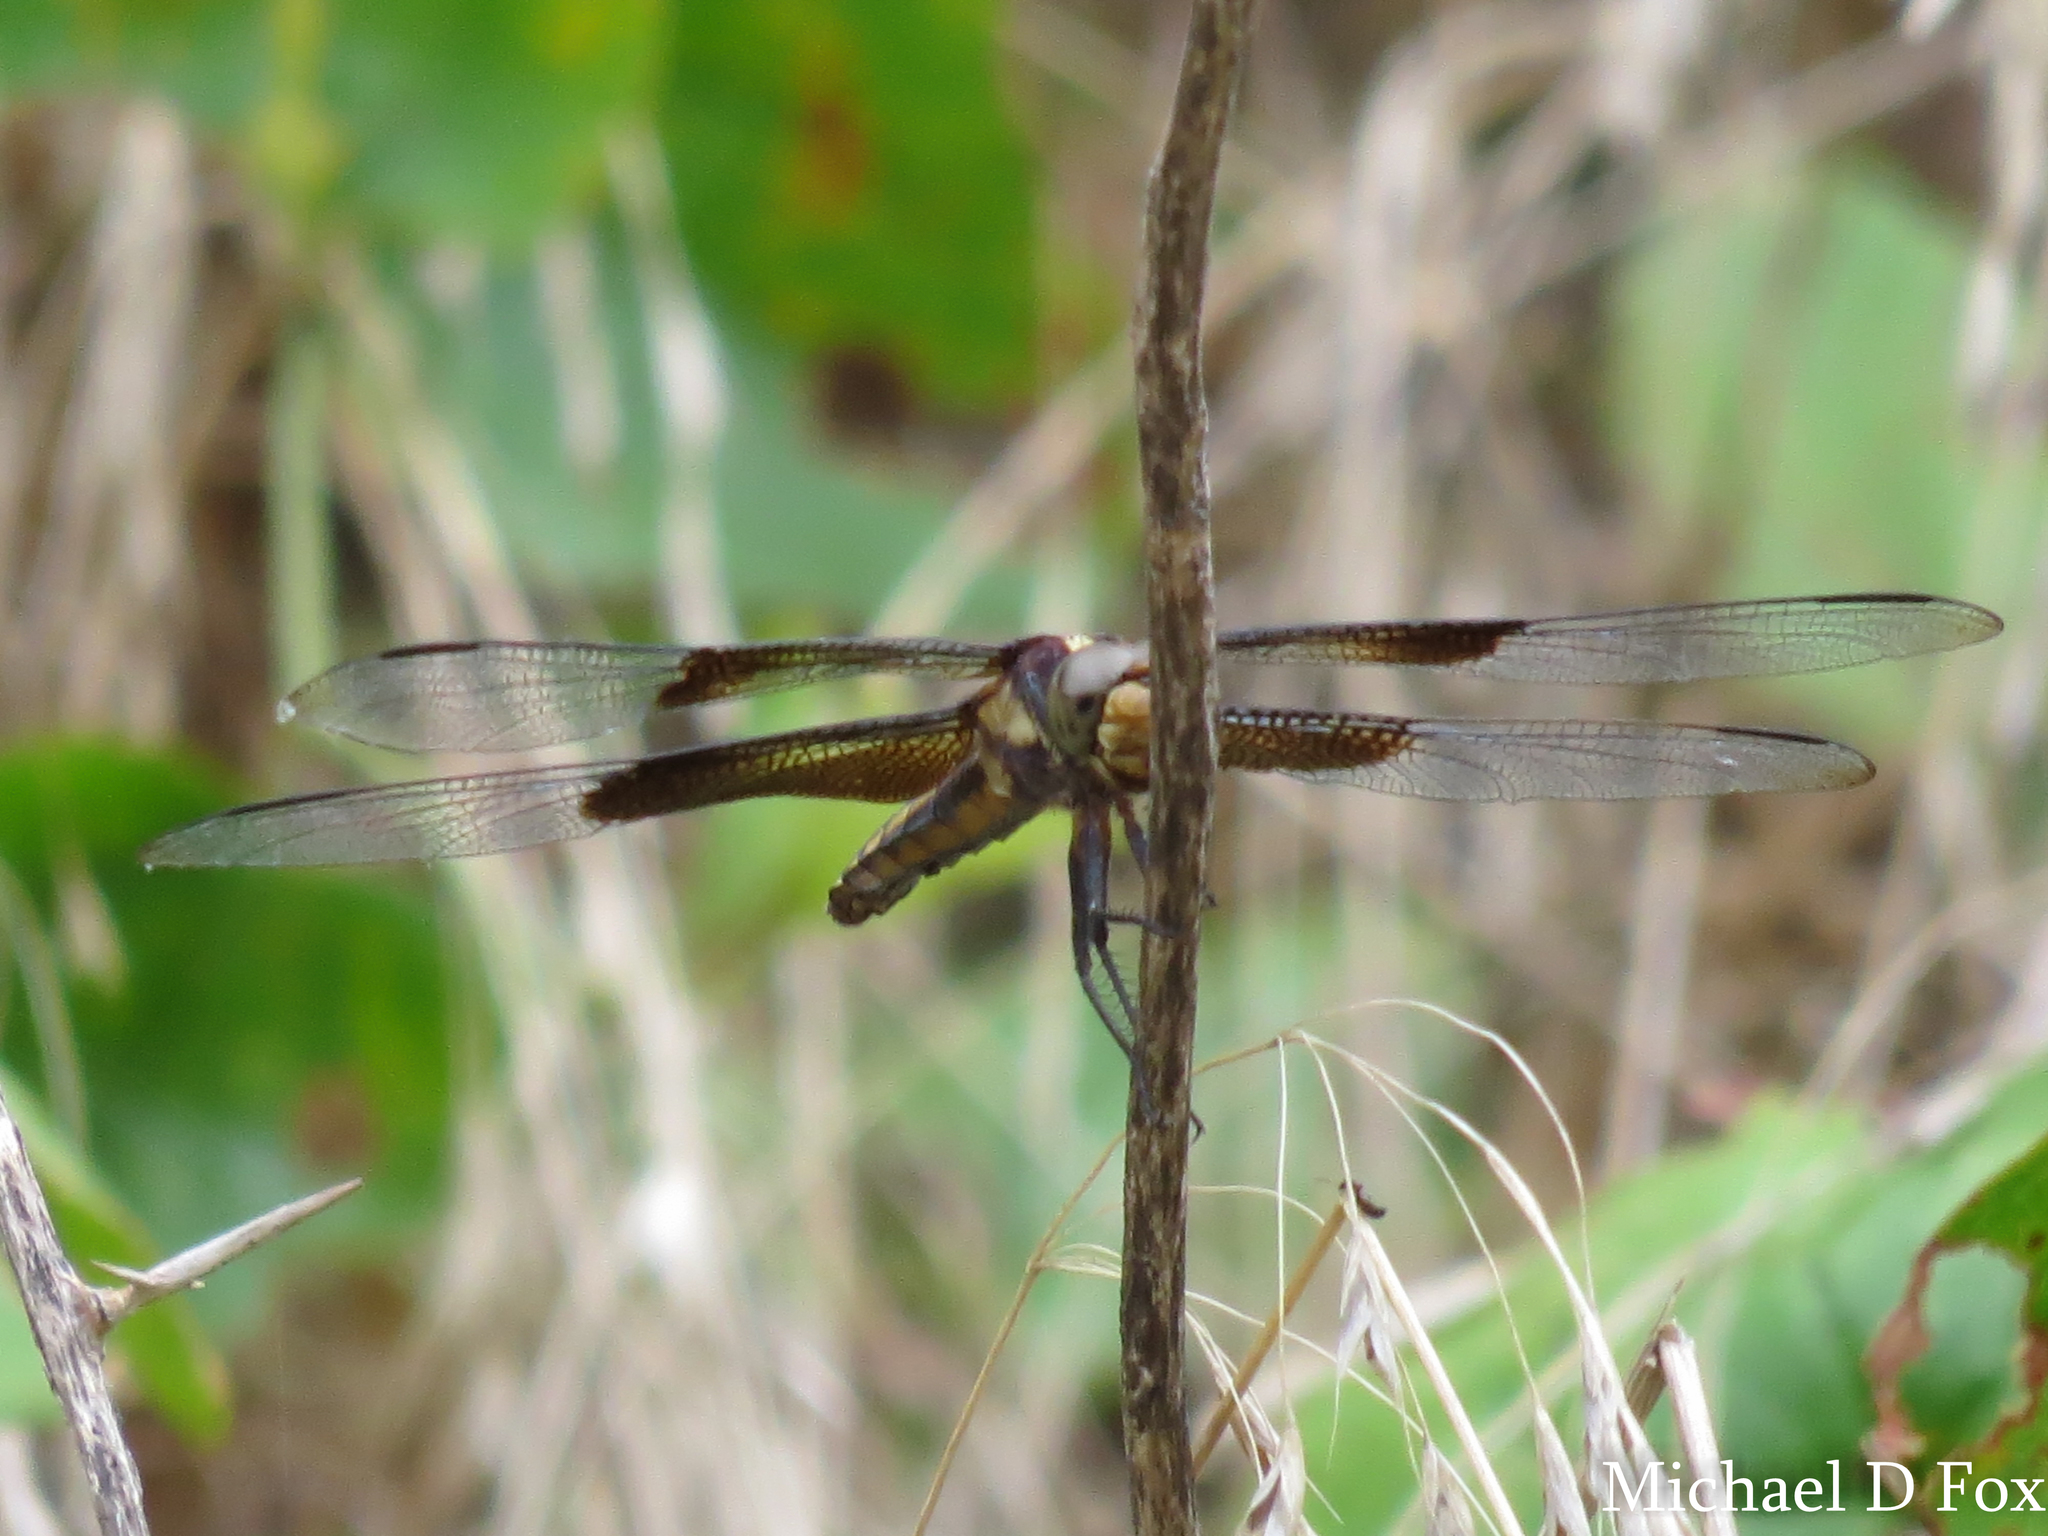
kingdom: Animalia
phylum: Arthropoda
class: Insecta
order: Odonata
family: Libellulidae
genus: Libellula
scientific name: Libellula luctuosa
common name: Widow skimmer
